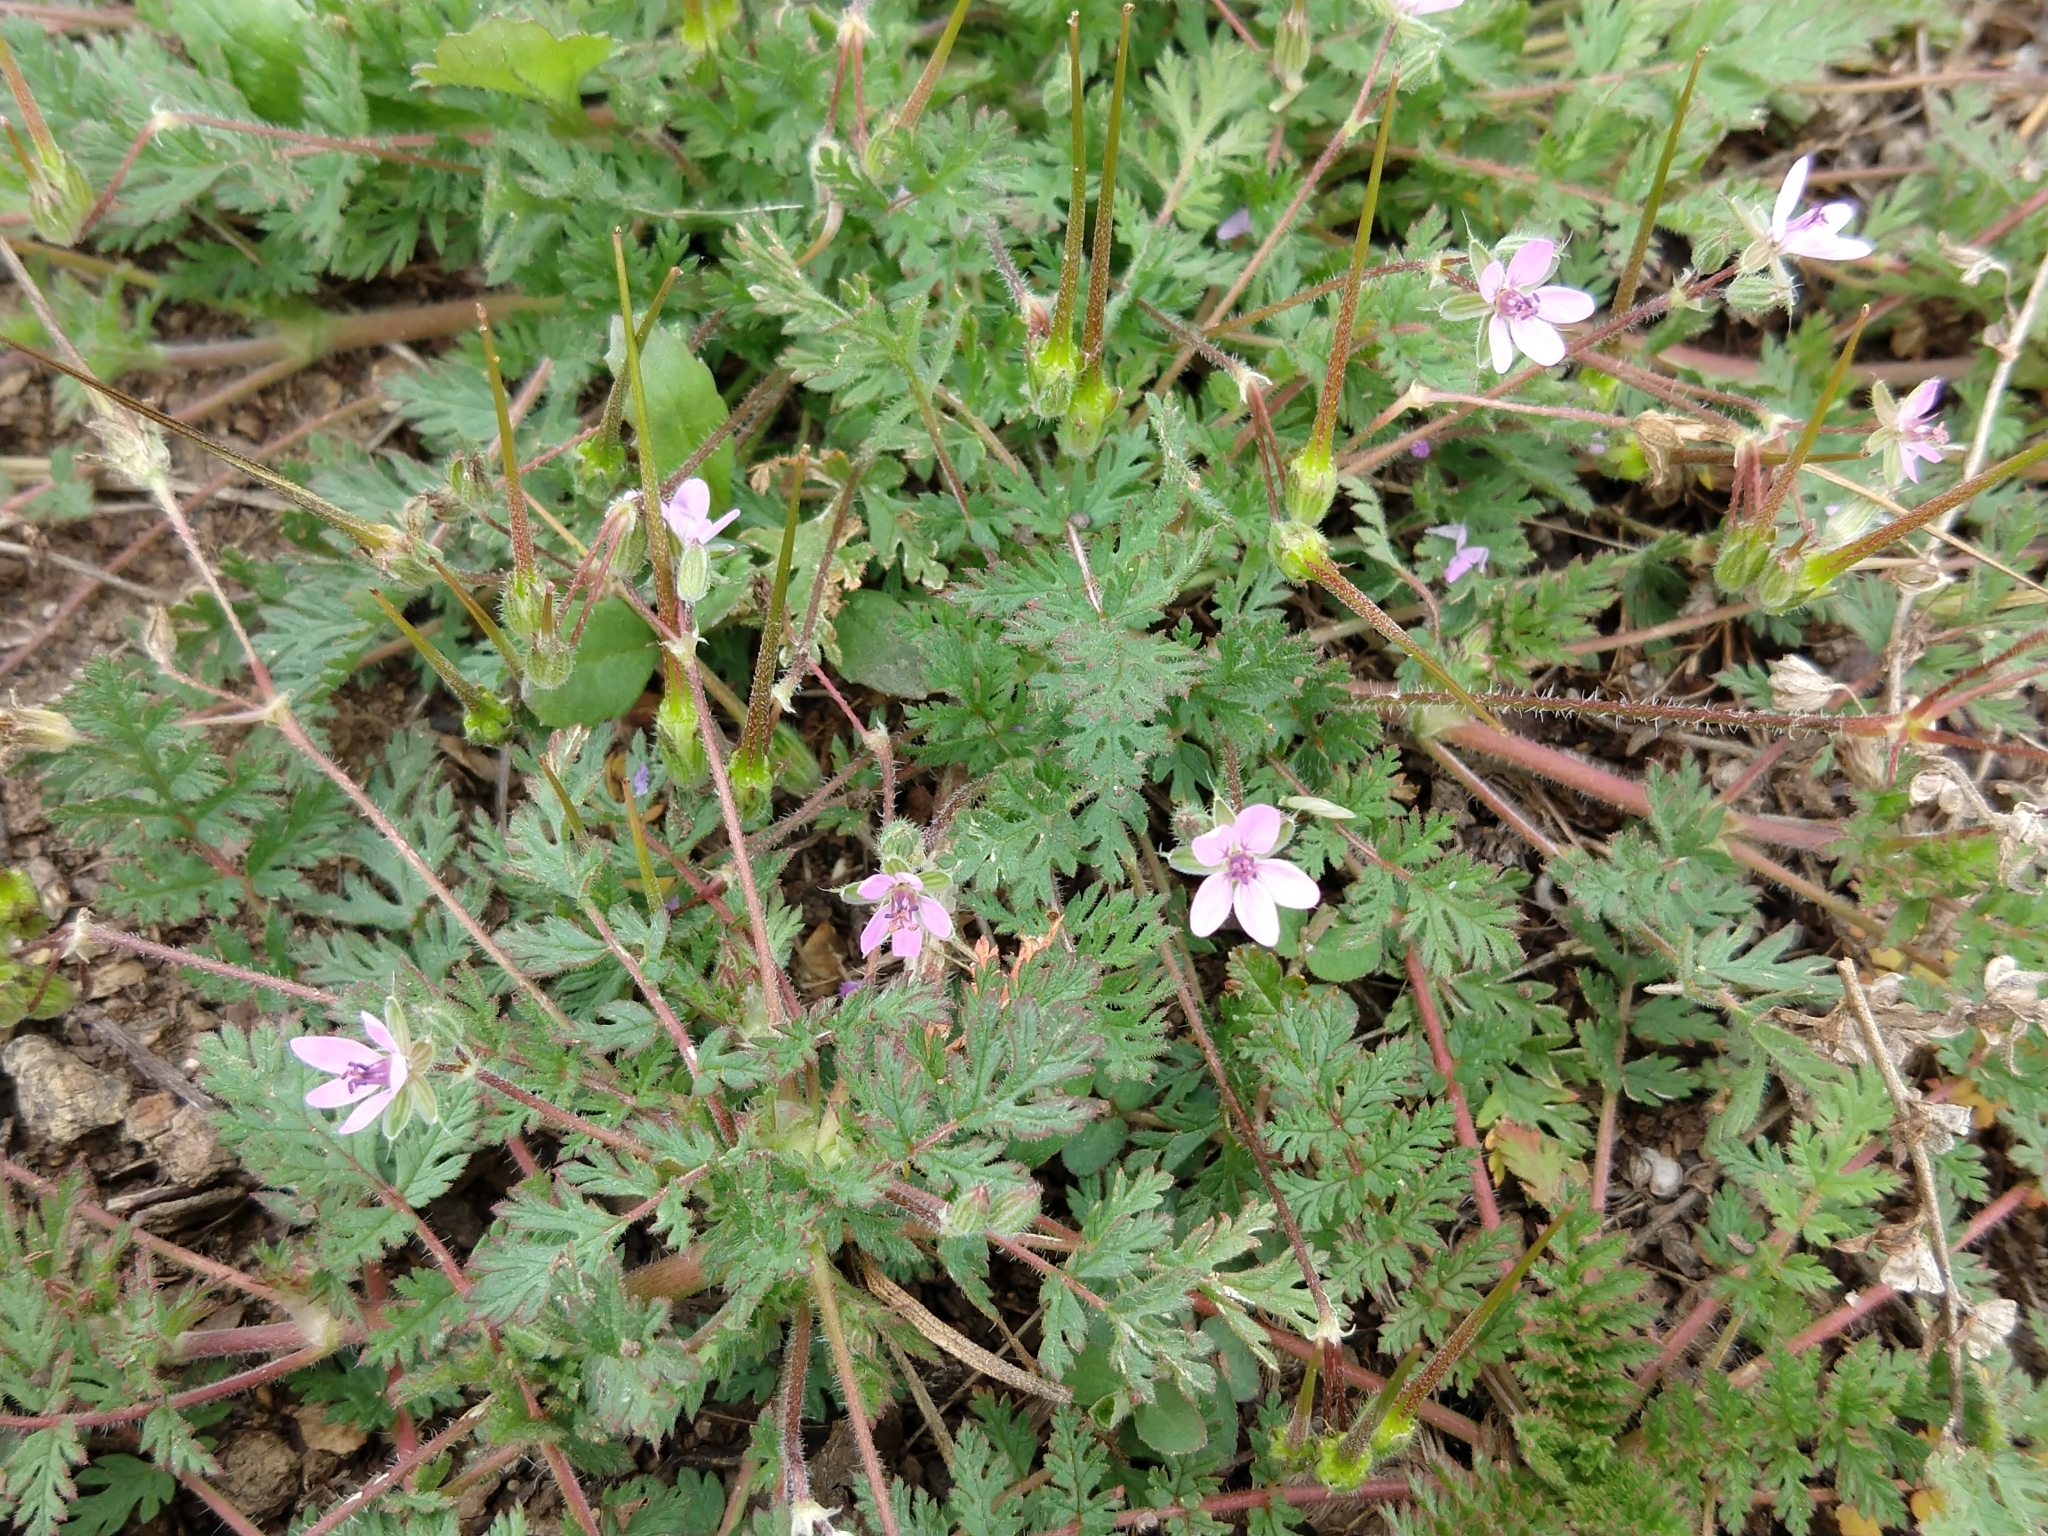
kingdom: Plantae
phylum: Tracheophyta
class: Magnoliopsida
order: Geraniales
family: Geraniaceae
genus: Erodium
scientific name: Erodium cicutarium
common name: Common stork's-bill
